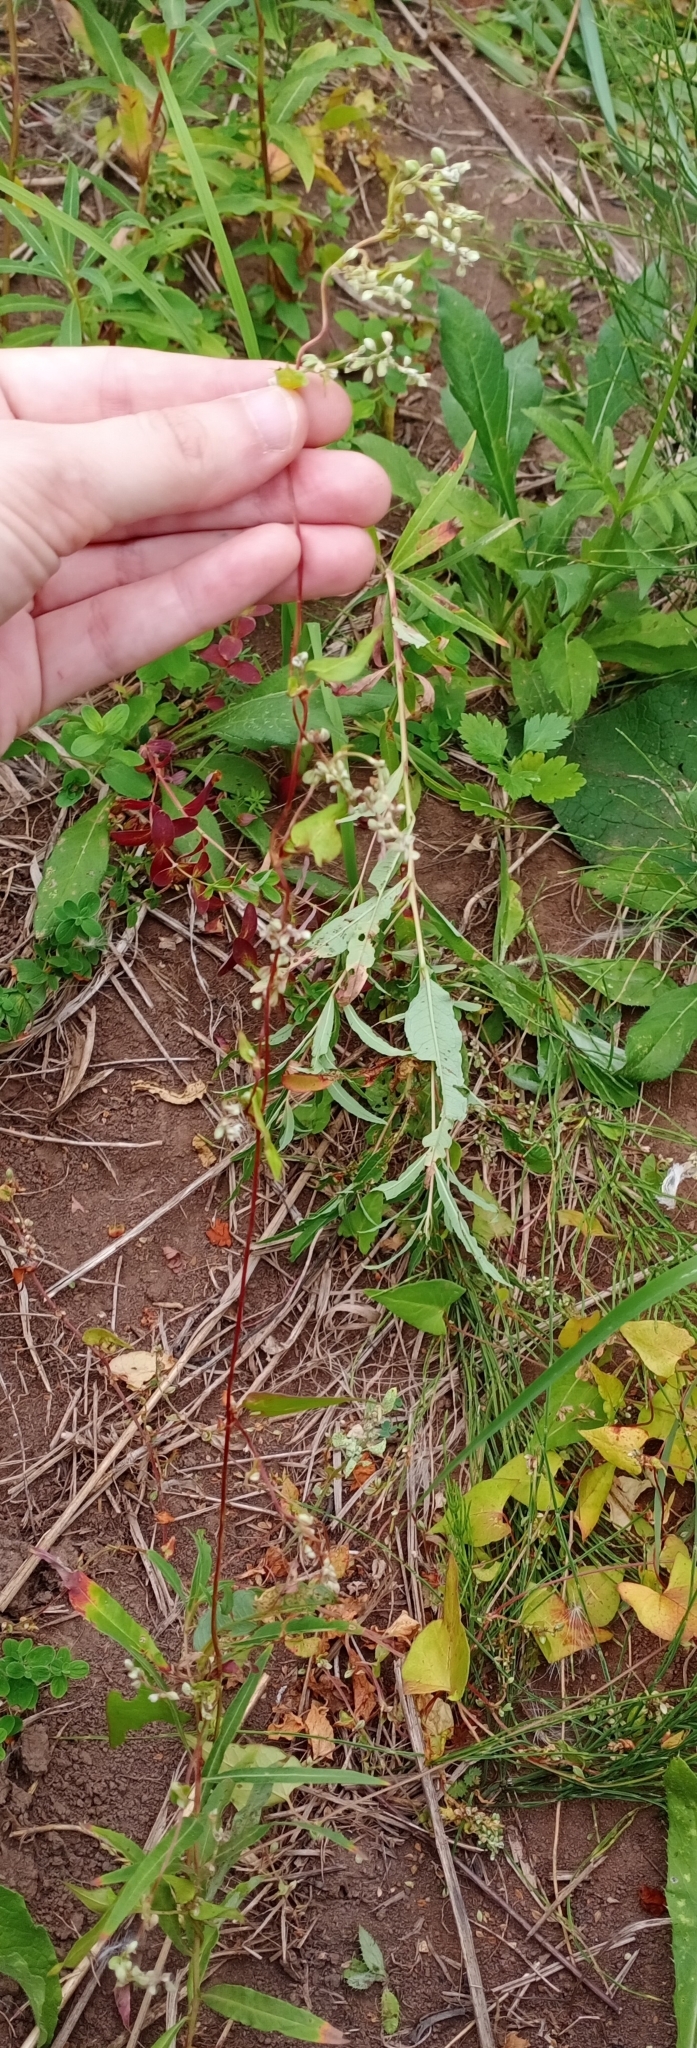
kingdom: Plantae
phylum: Tracheophyta
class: Magnoliopsida
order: Caryophyllales
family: Polygonaceae
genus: Fallopia
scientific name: Fallopia convolvulus
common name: Black bindweed
